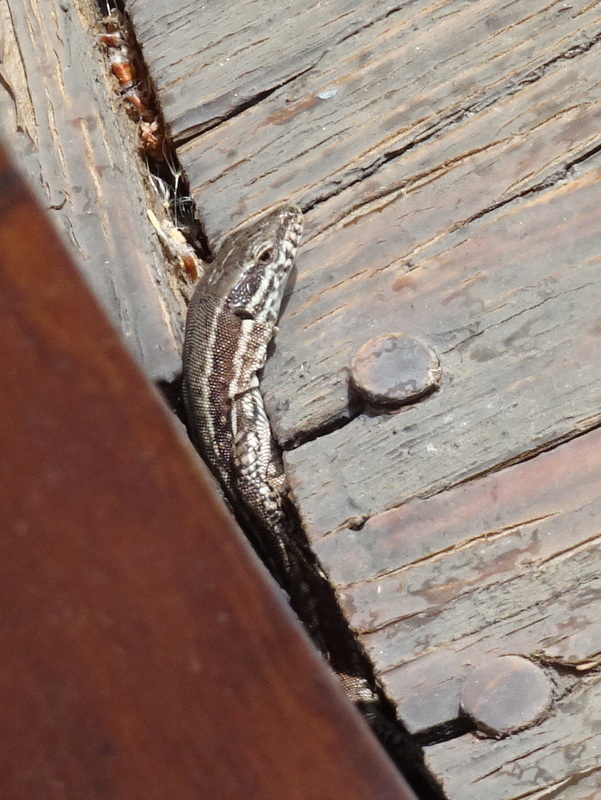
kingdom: Animalia
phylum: Chordata
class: Squamata
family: Lacertidae
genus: Podarcis
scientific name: Podarcis muralis
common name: Common wall lizard
